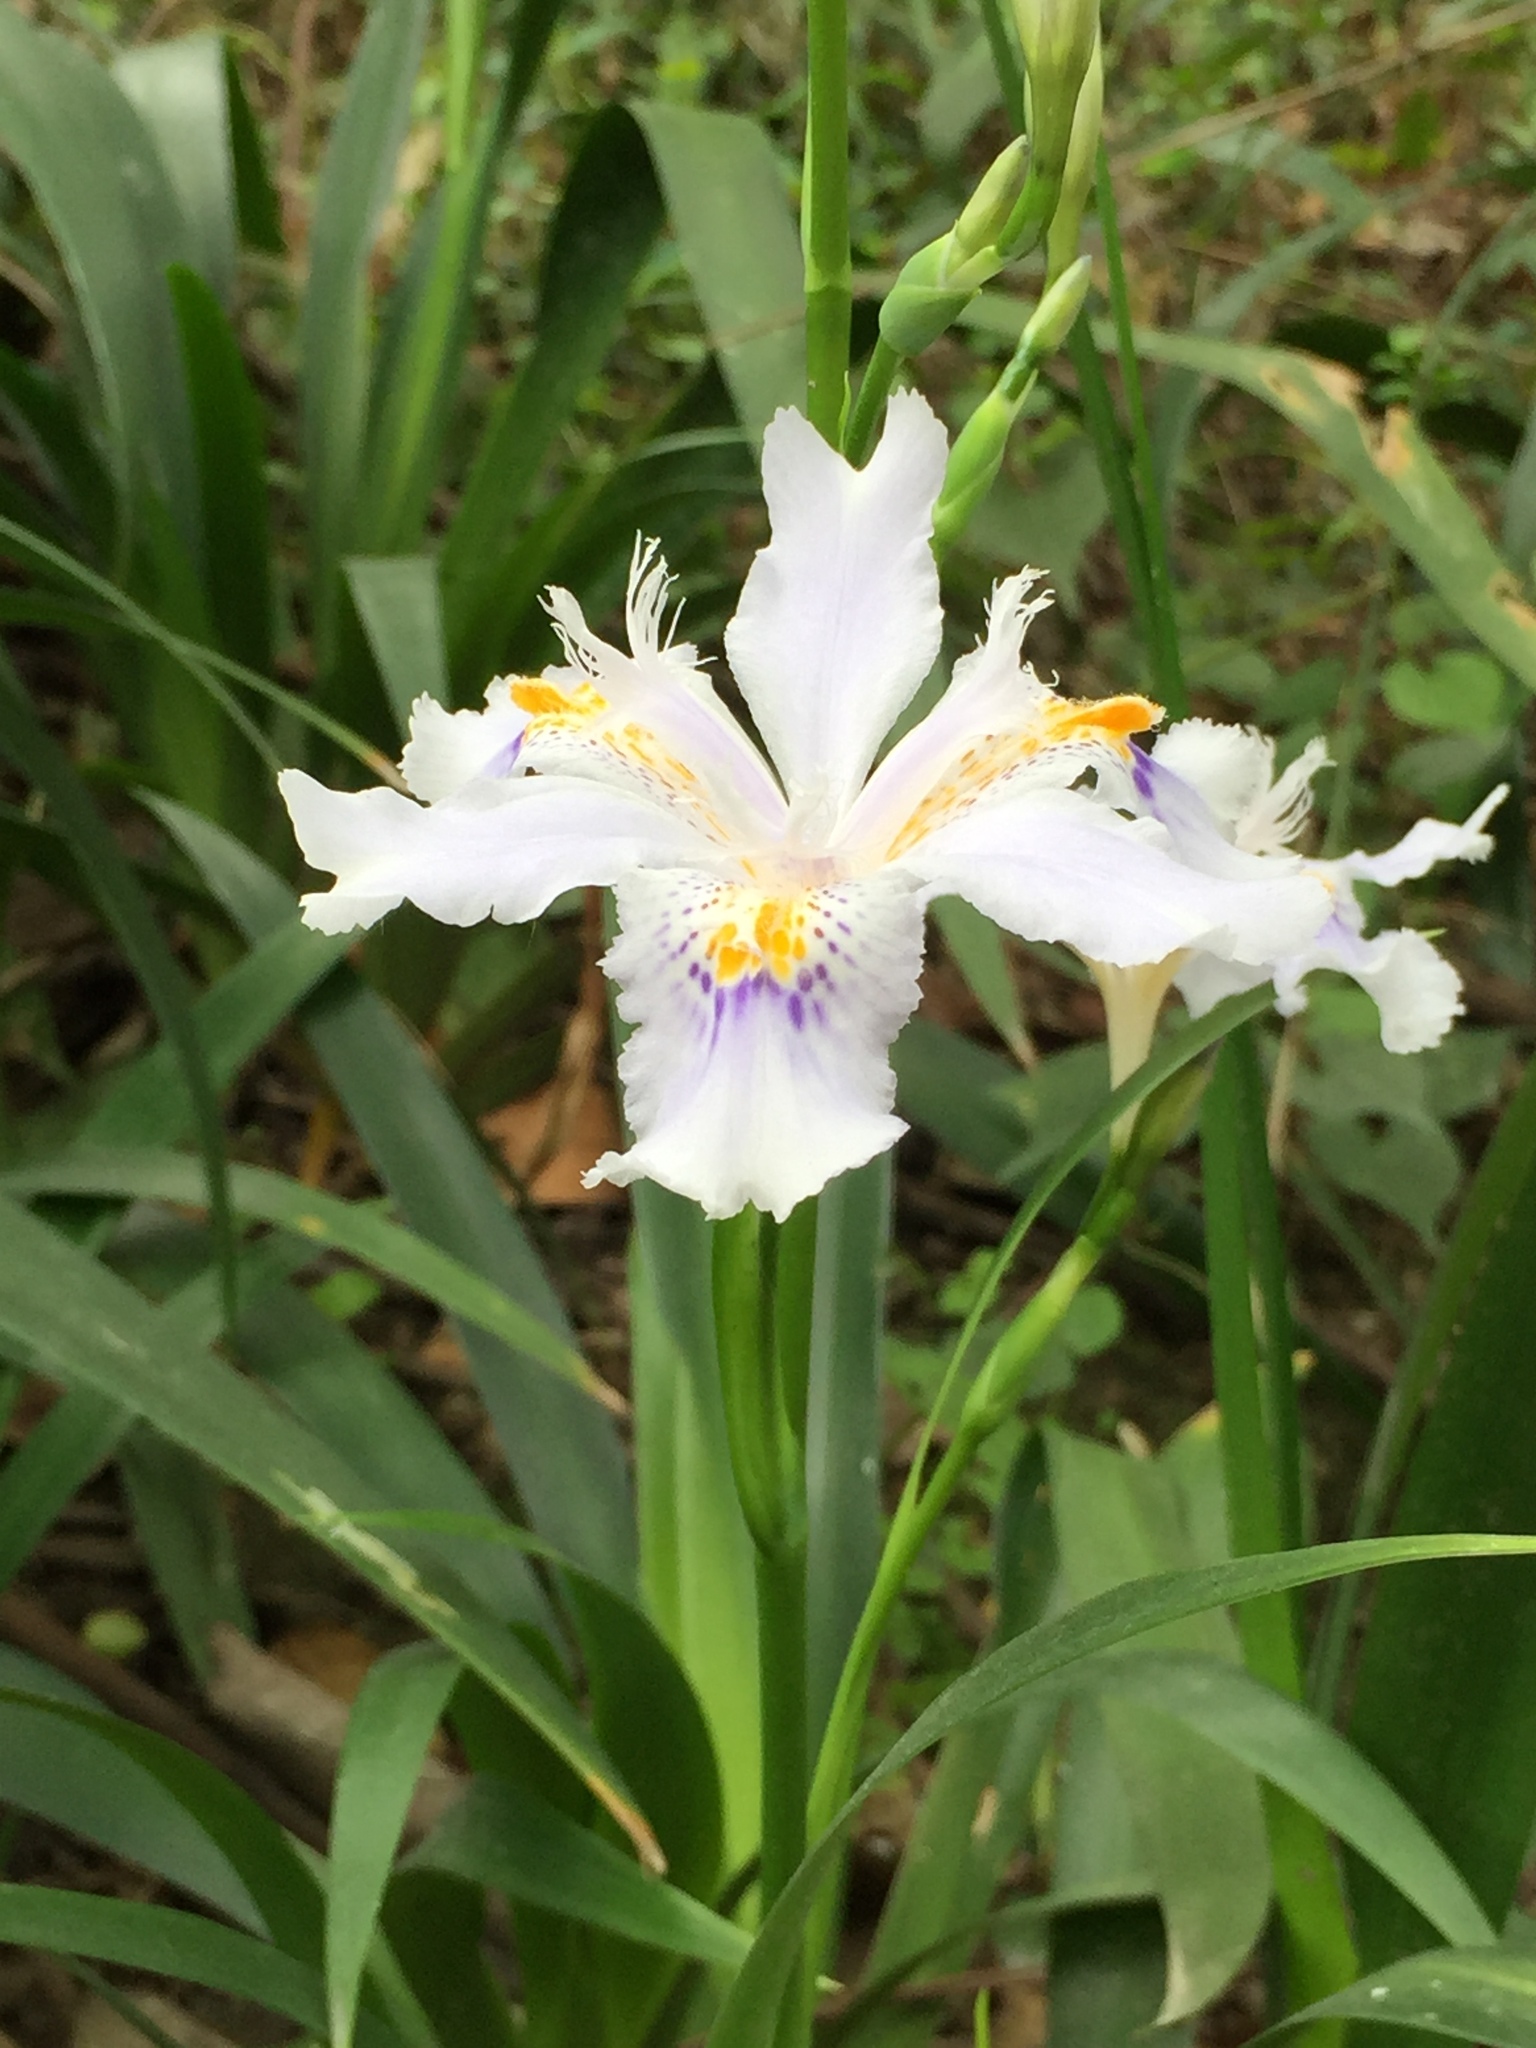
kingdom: Plantae
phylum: Tracheophyta
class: Liliopsida
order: Asparagales
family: Iridaceae
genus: Iris
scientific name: Iris japonica
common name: Butterfly-flower
